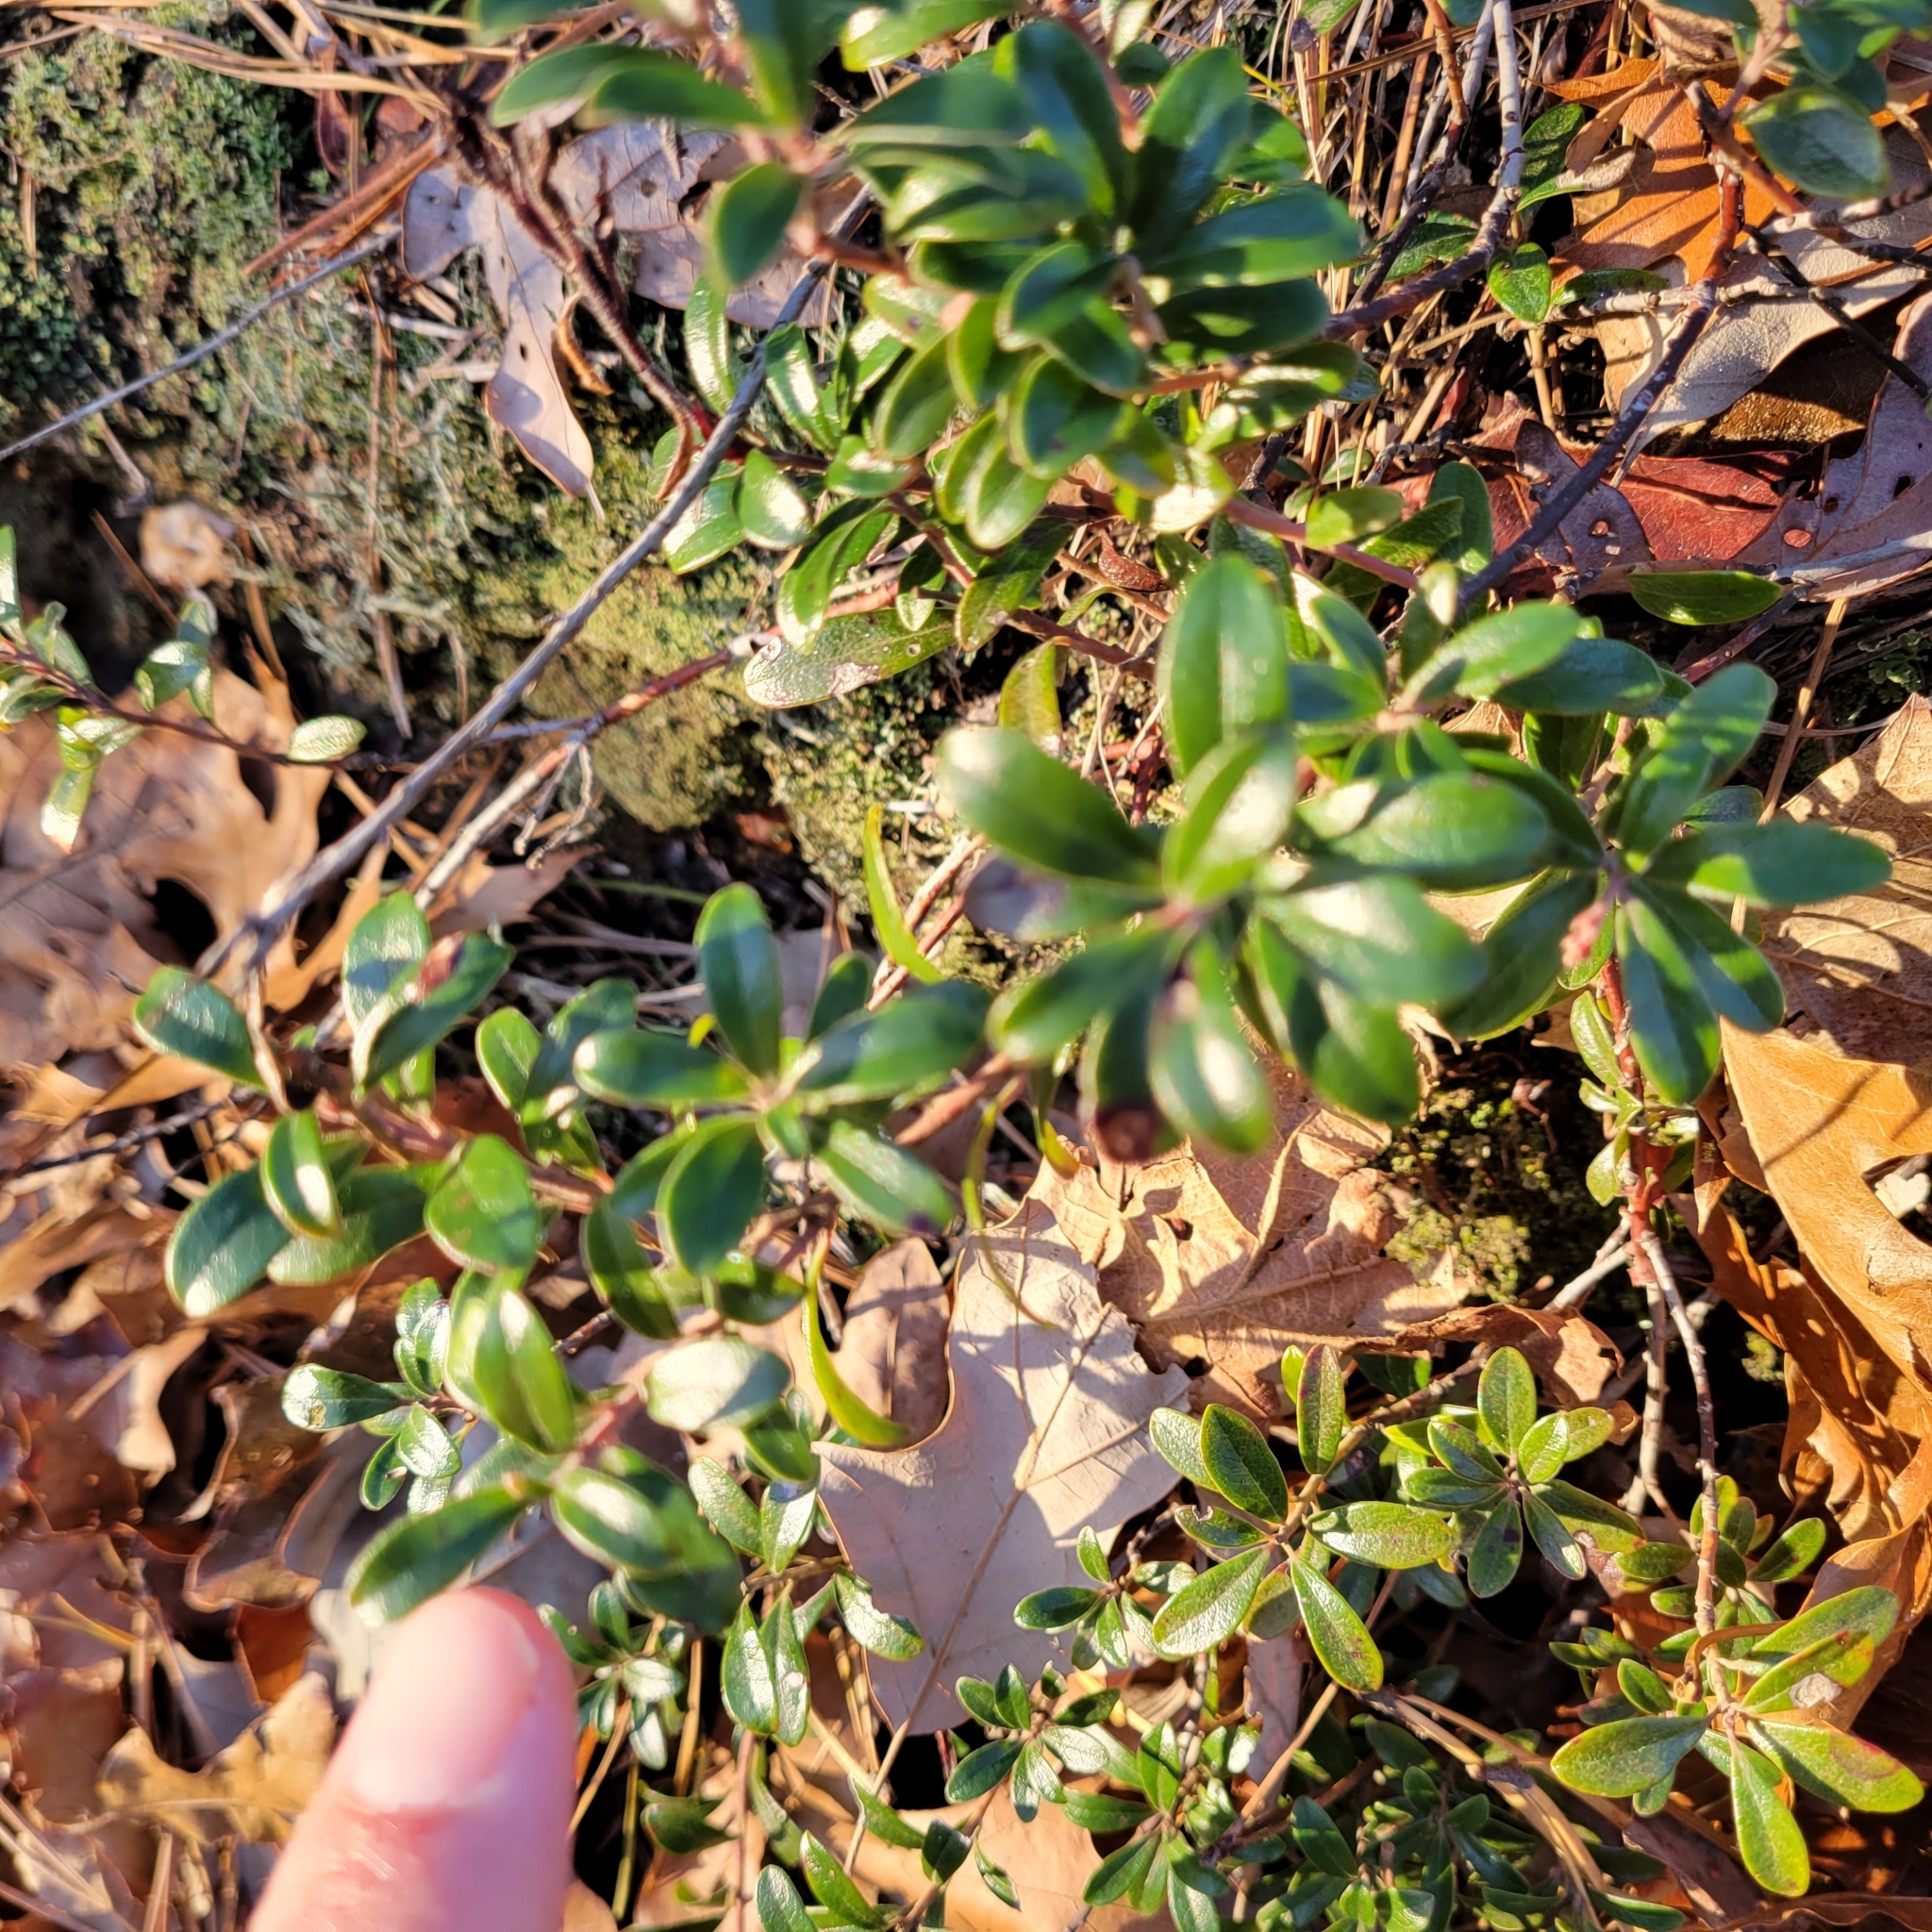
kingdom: Plantae
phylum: Tracheophyta
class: Magnoliopsida
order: Ericales
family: Ericaceae
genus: Arctostaphylos
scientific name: Arctostaphylos uva-ursi
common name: Bearberry
